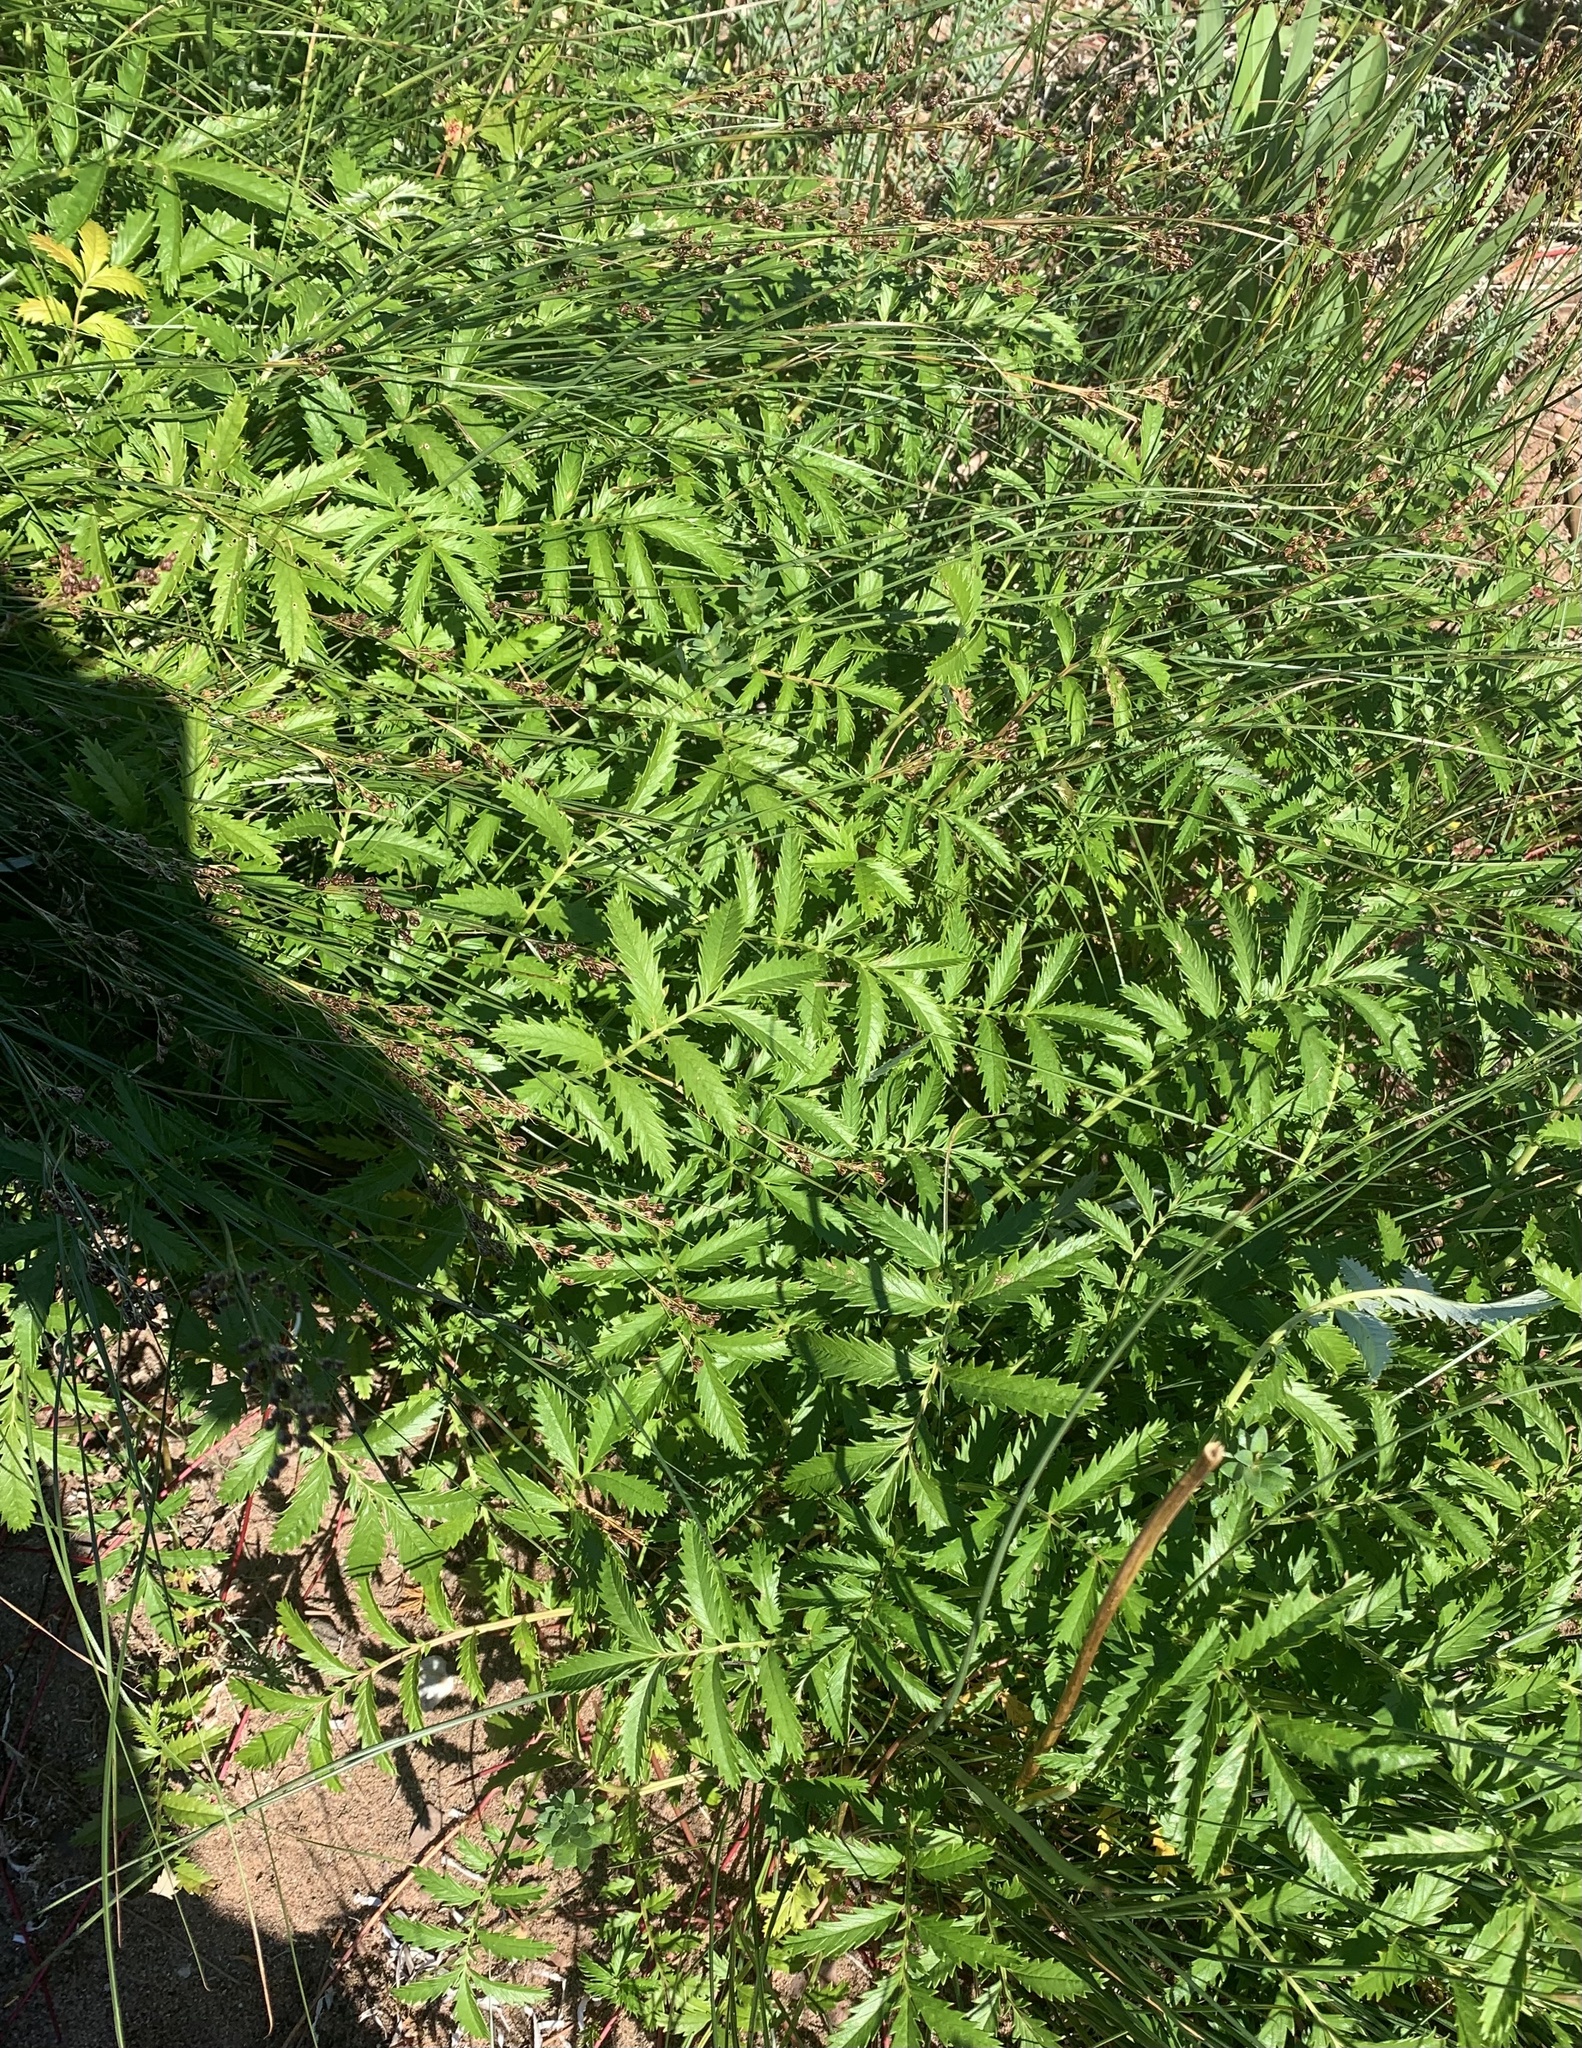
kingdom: Plantae
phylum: Tracheophyta
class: Magnoliopsida
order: Rosales
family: Rosaceae
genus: Argentina
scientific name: Argentina anserina
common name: Common silverweed
